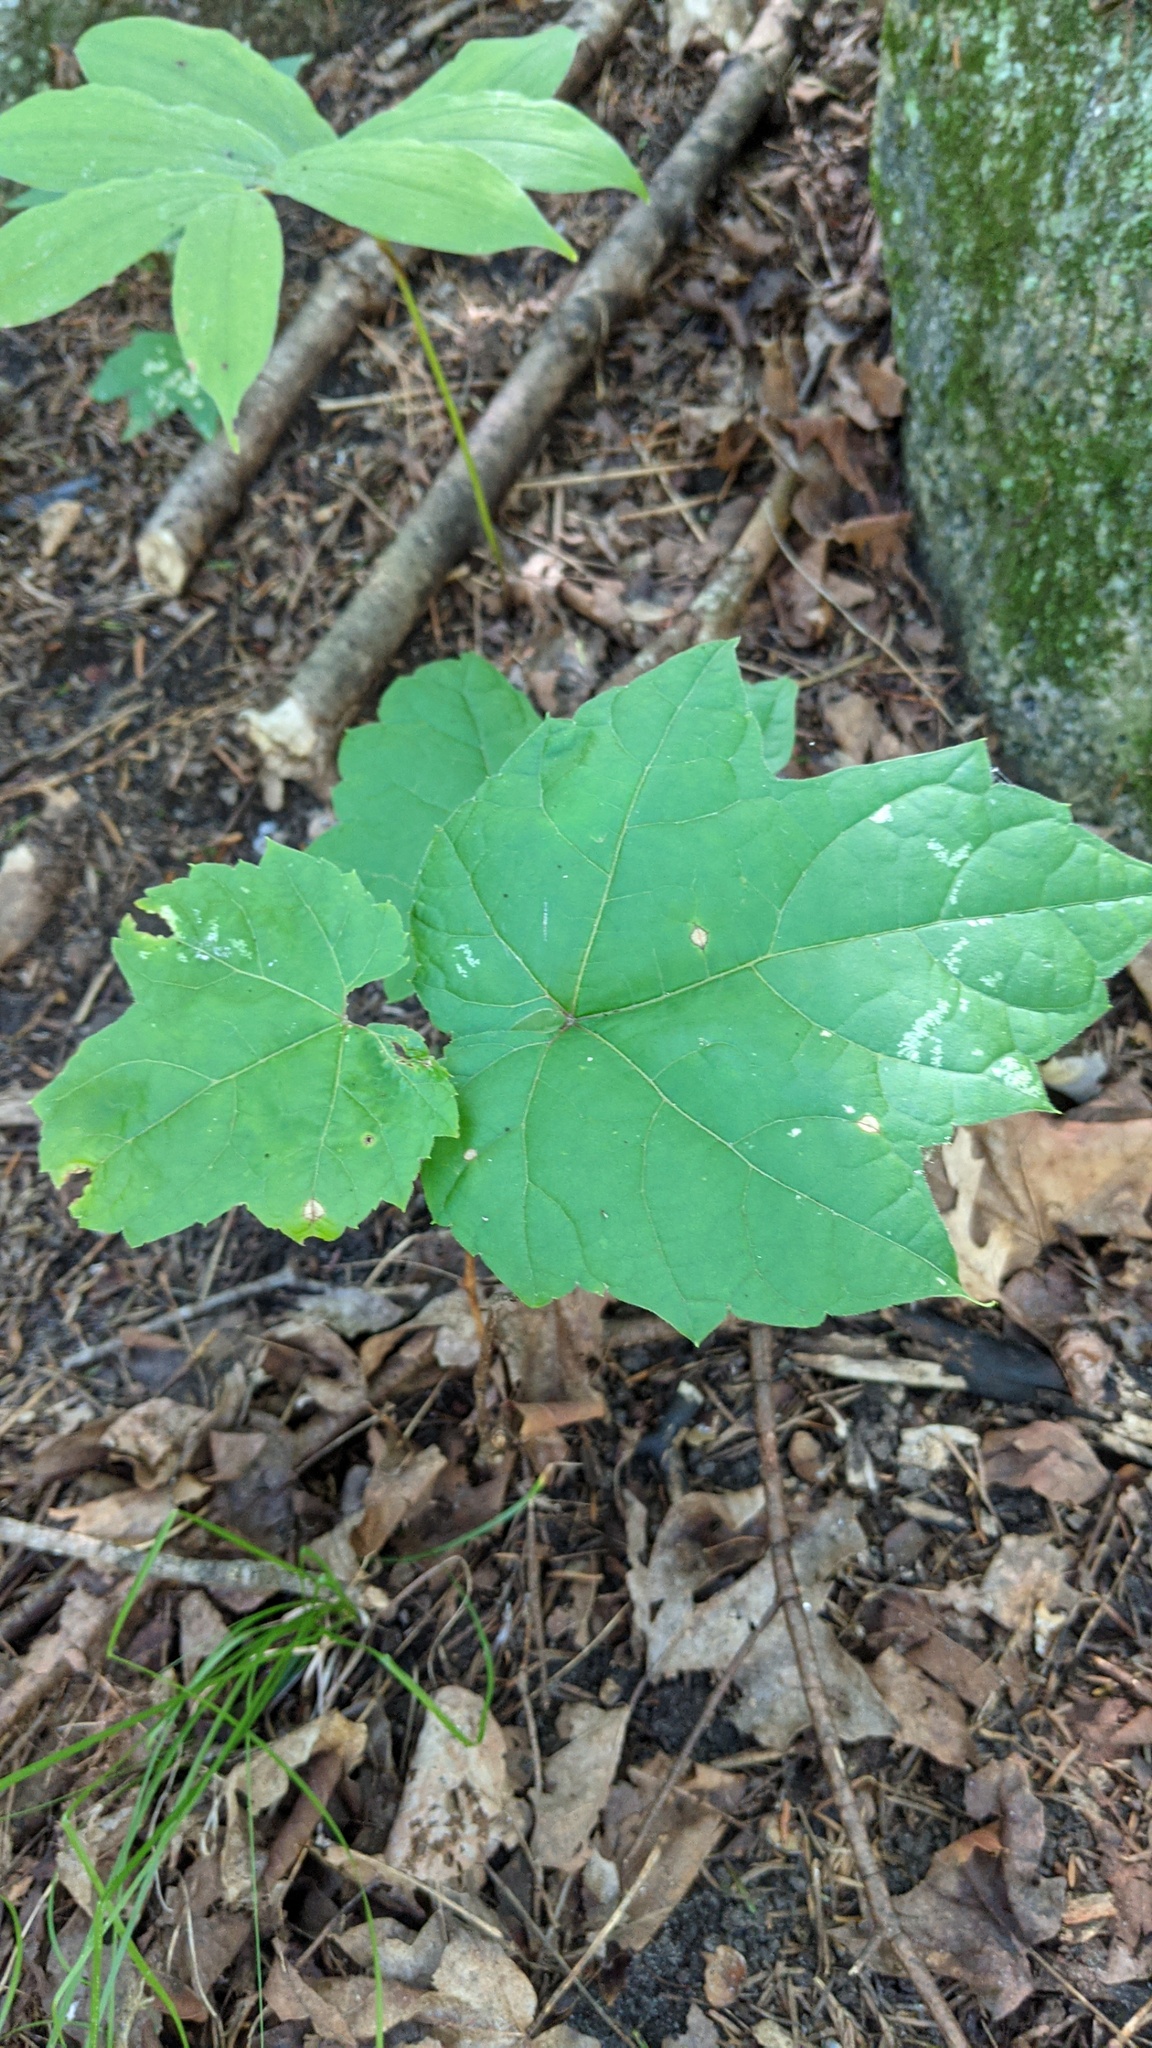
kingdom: Plantae
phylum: Tracheophyta
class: Magnoliopsida
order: Vitales
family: Vitaceae
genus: Vitis
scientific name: Vitis riparia
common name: Frost grape
